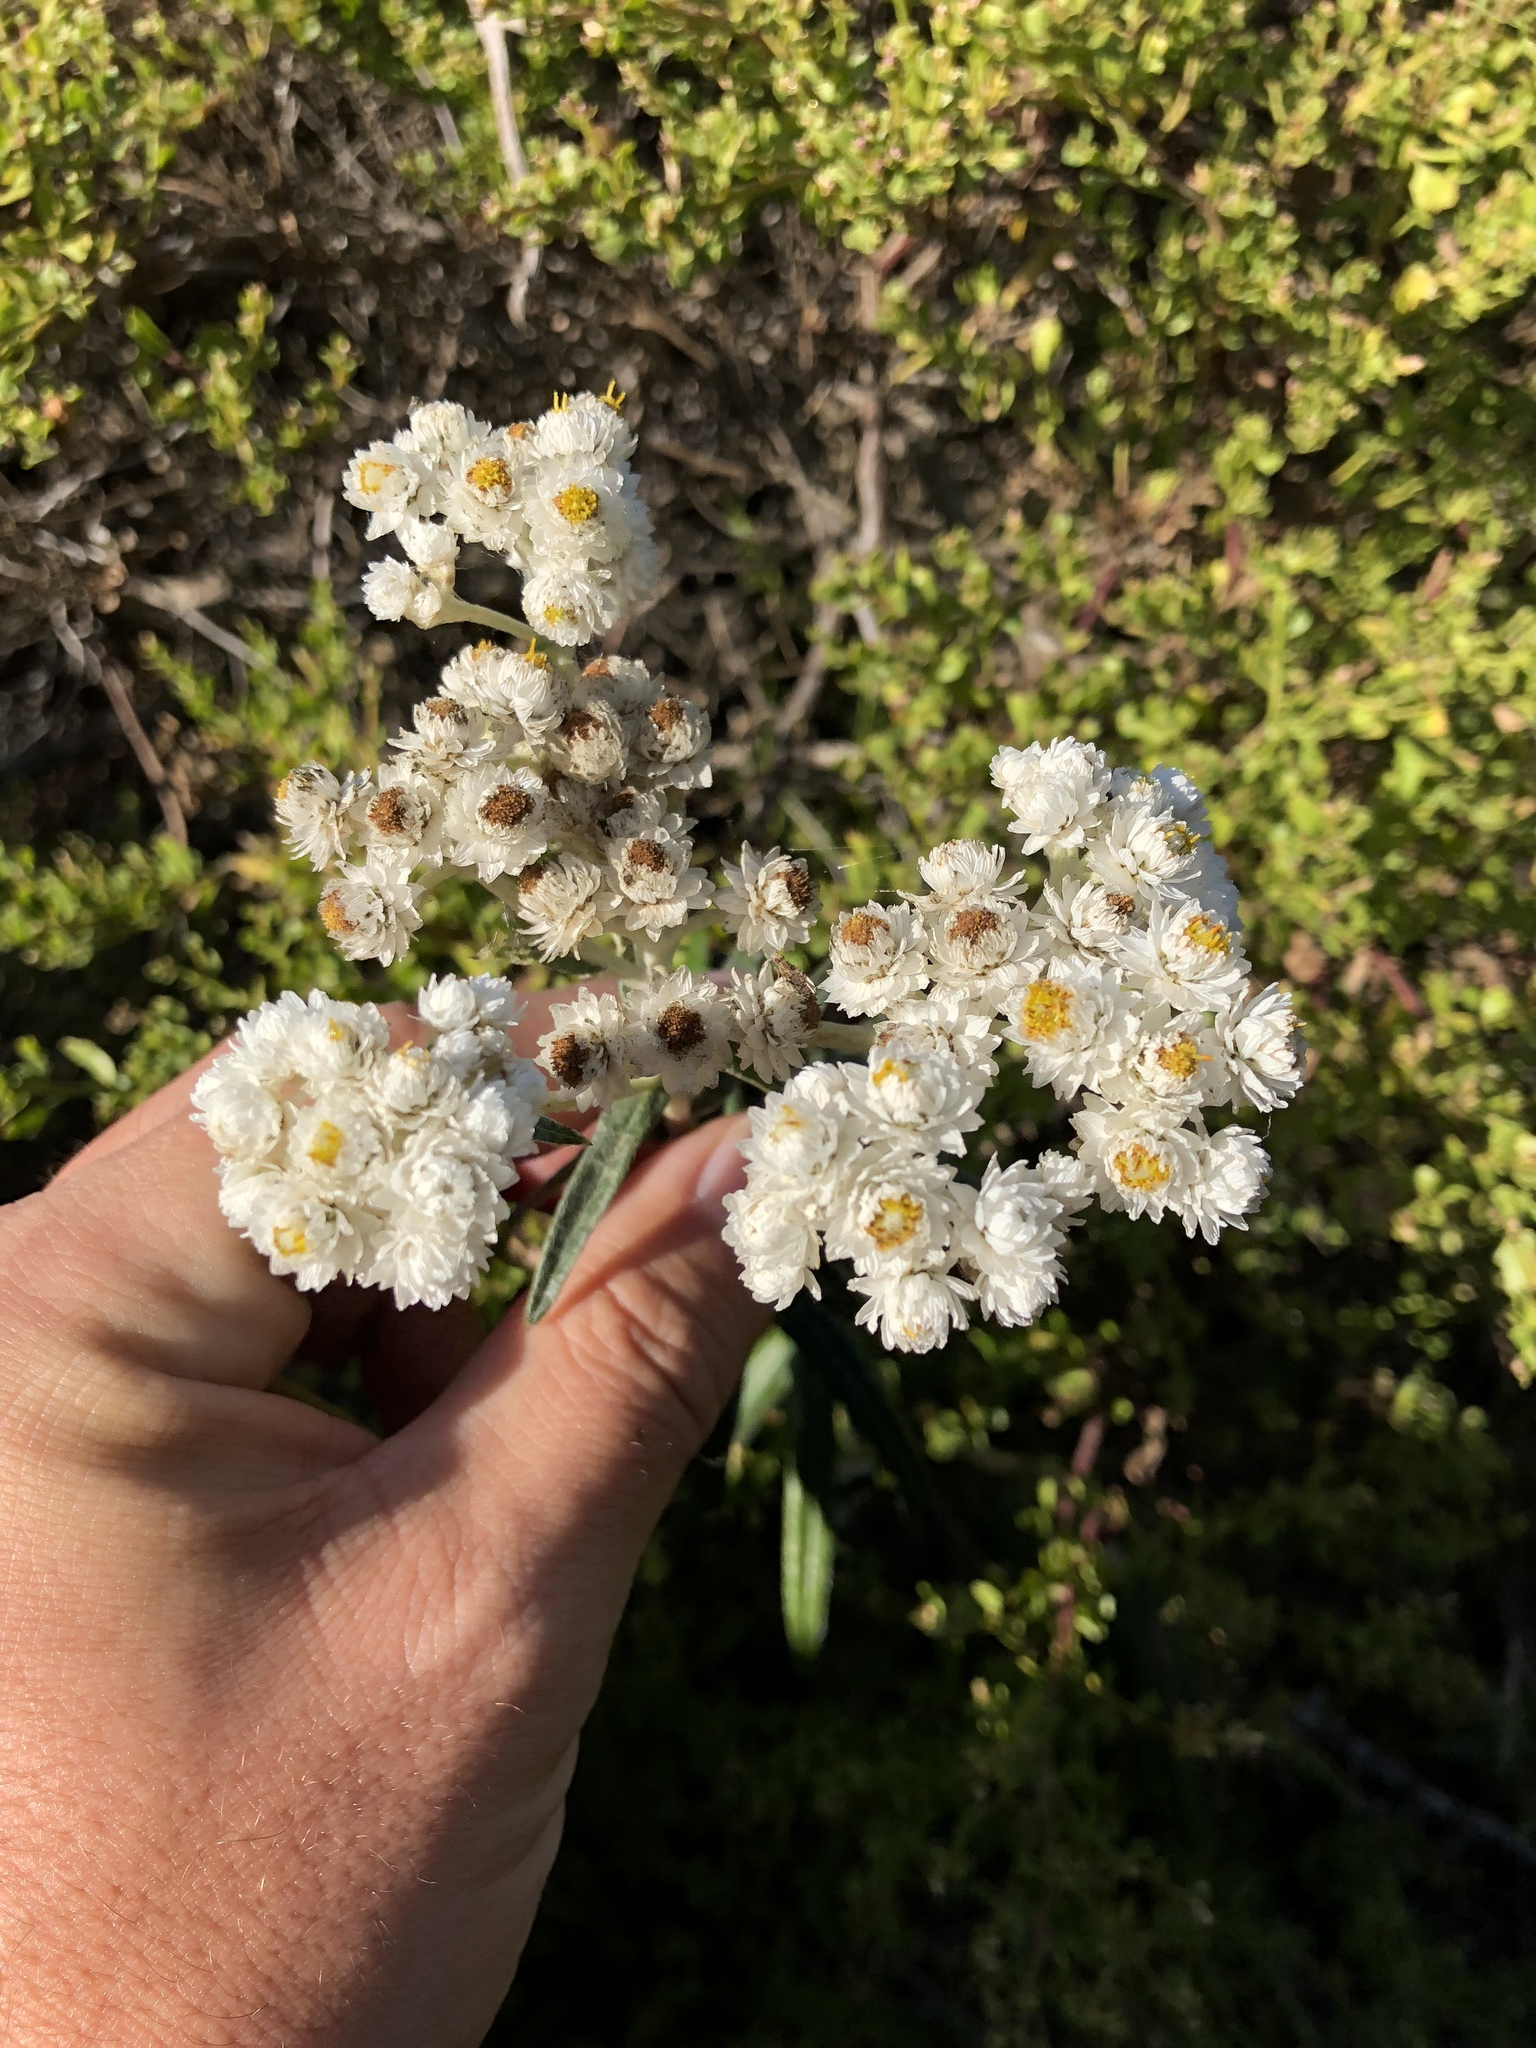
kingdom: Plantae
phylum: Tracheophyta
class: Magnoliopsida
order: Asterales
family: Asteraceae
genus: Anaphalis
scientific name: Anaphalis margaritacea
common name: Pearly everlasting
